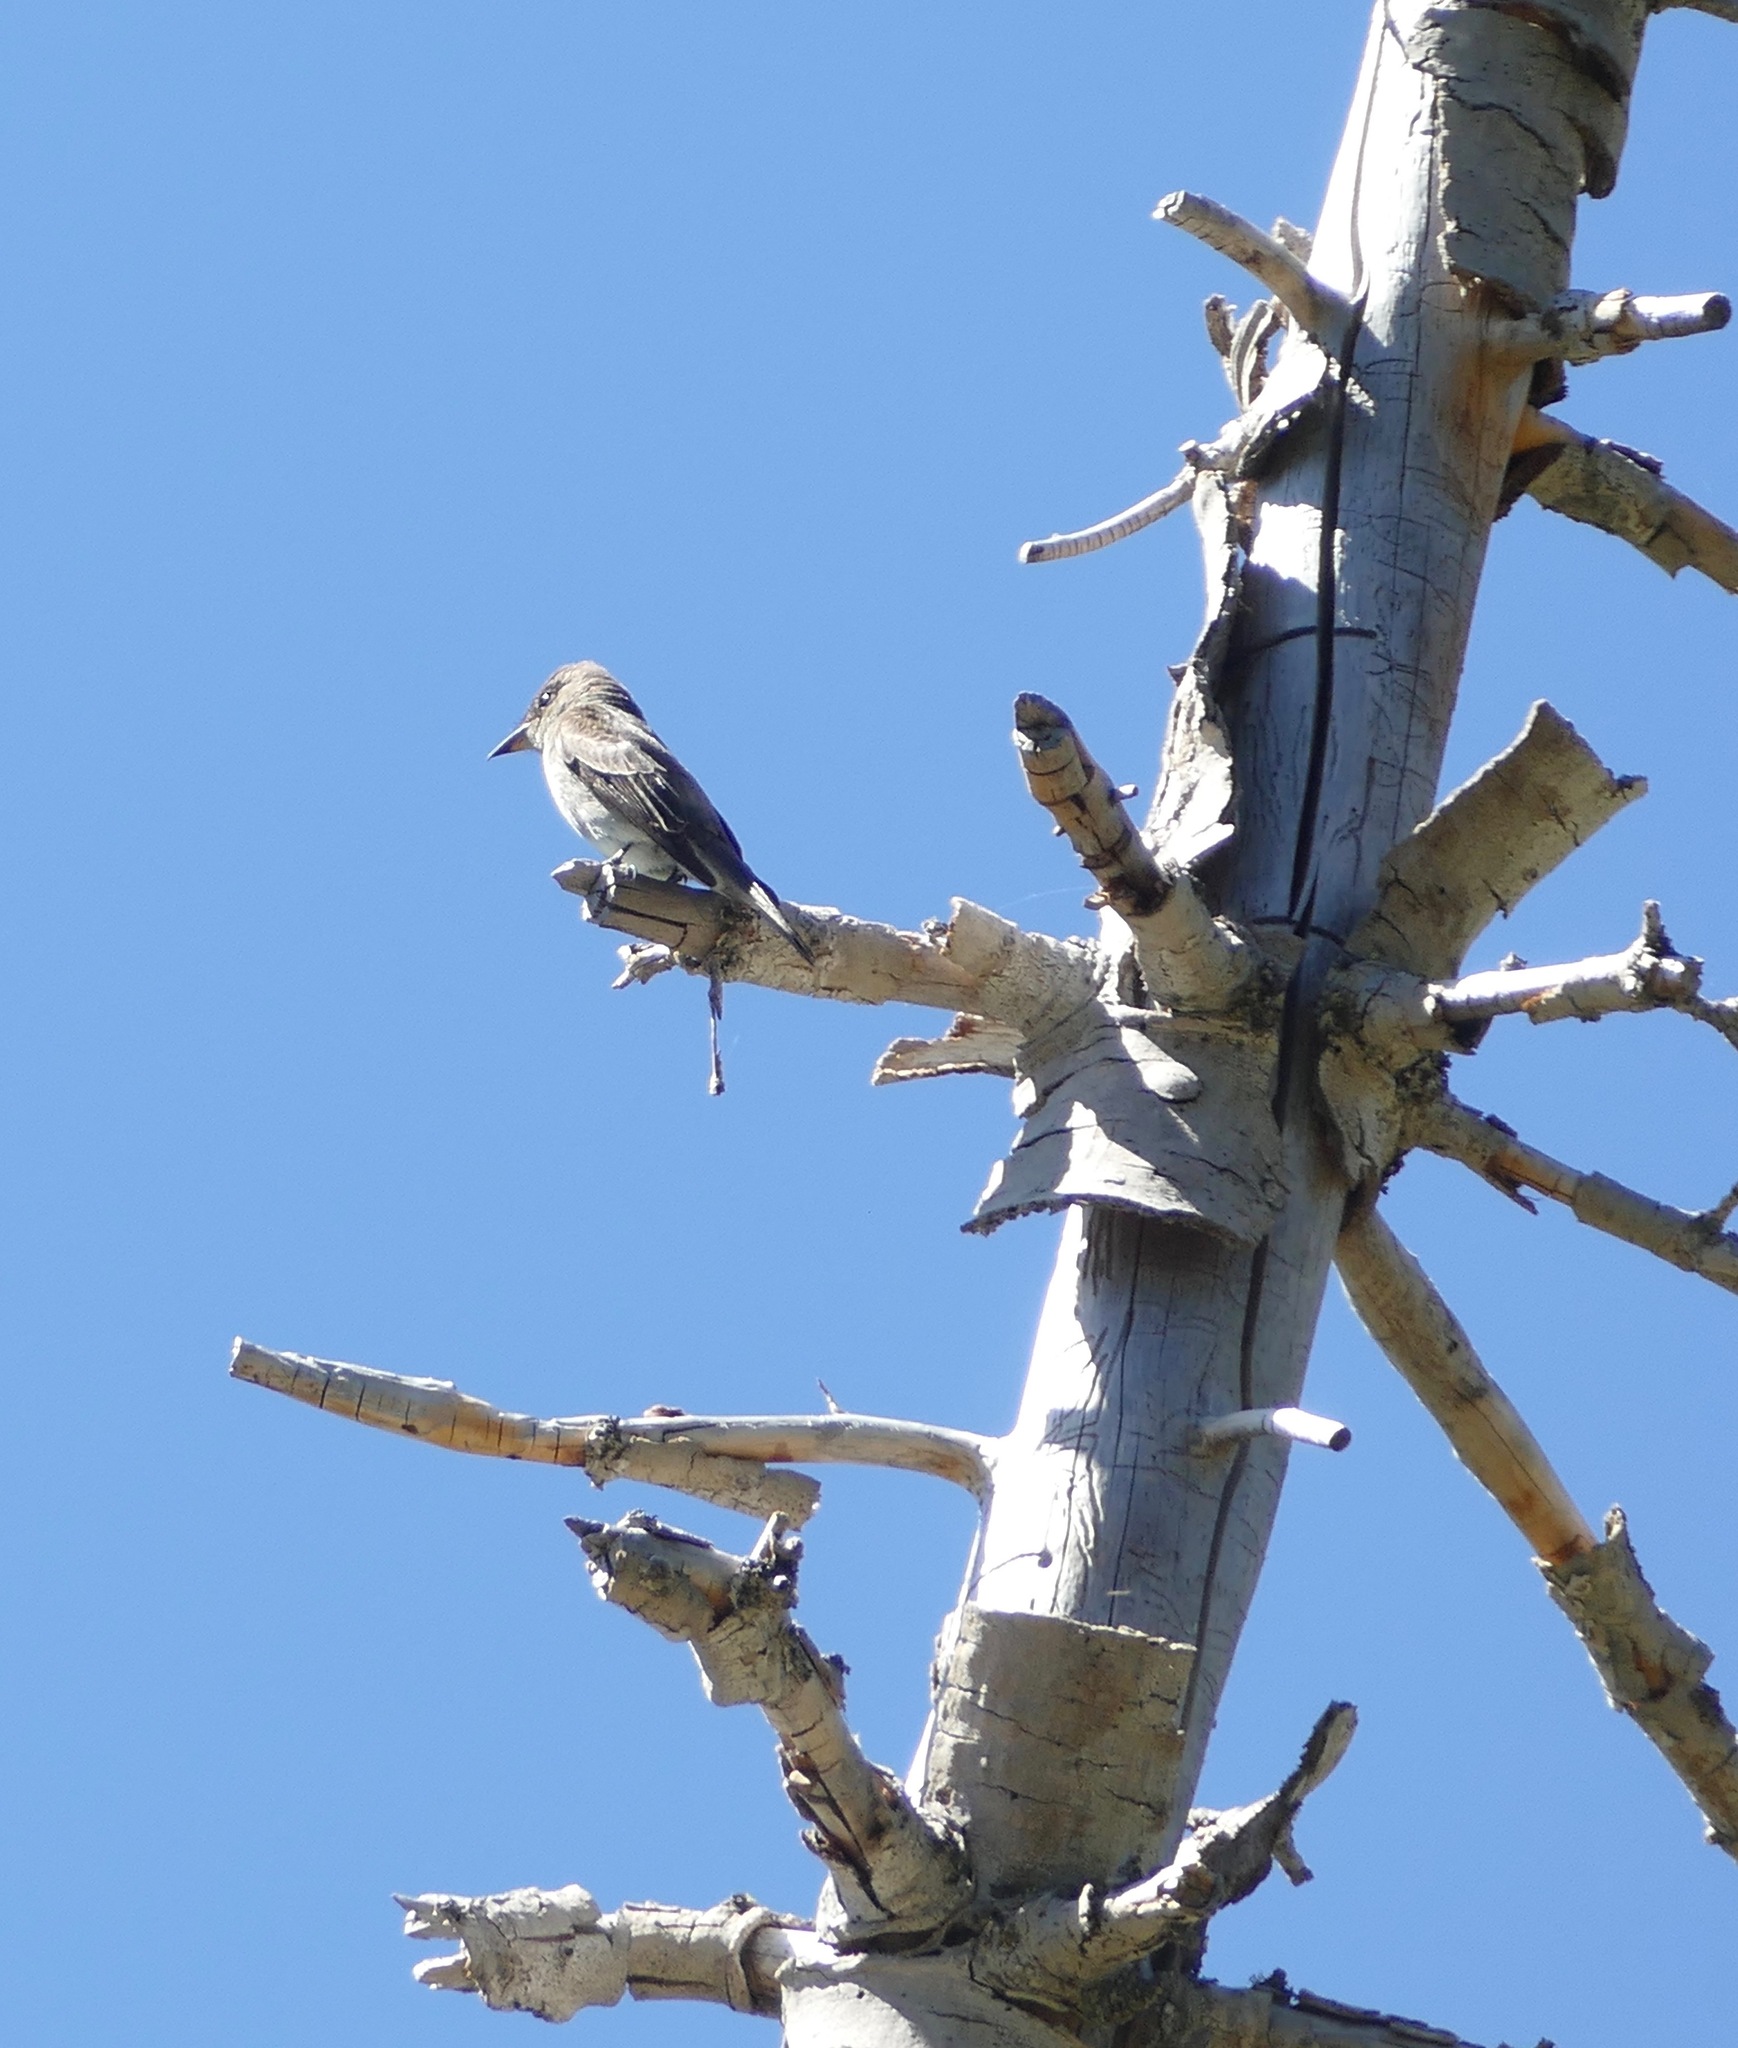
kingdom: Animalia
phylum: Chordata
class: Aves
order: Passeriformes
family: Tyrannidae
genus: Contopus
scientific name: Contopus cooperi
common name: Olive-sided flycatcher
